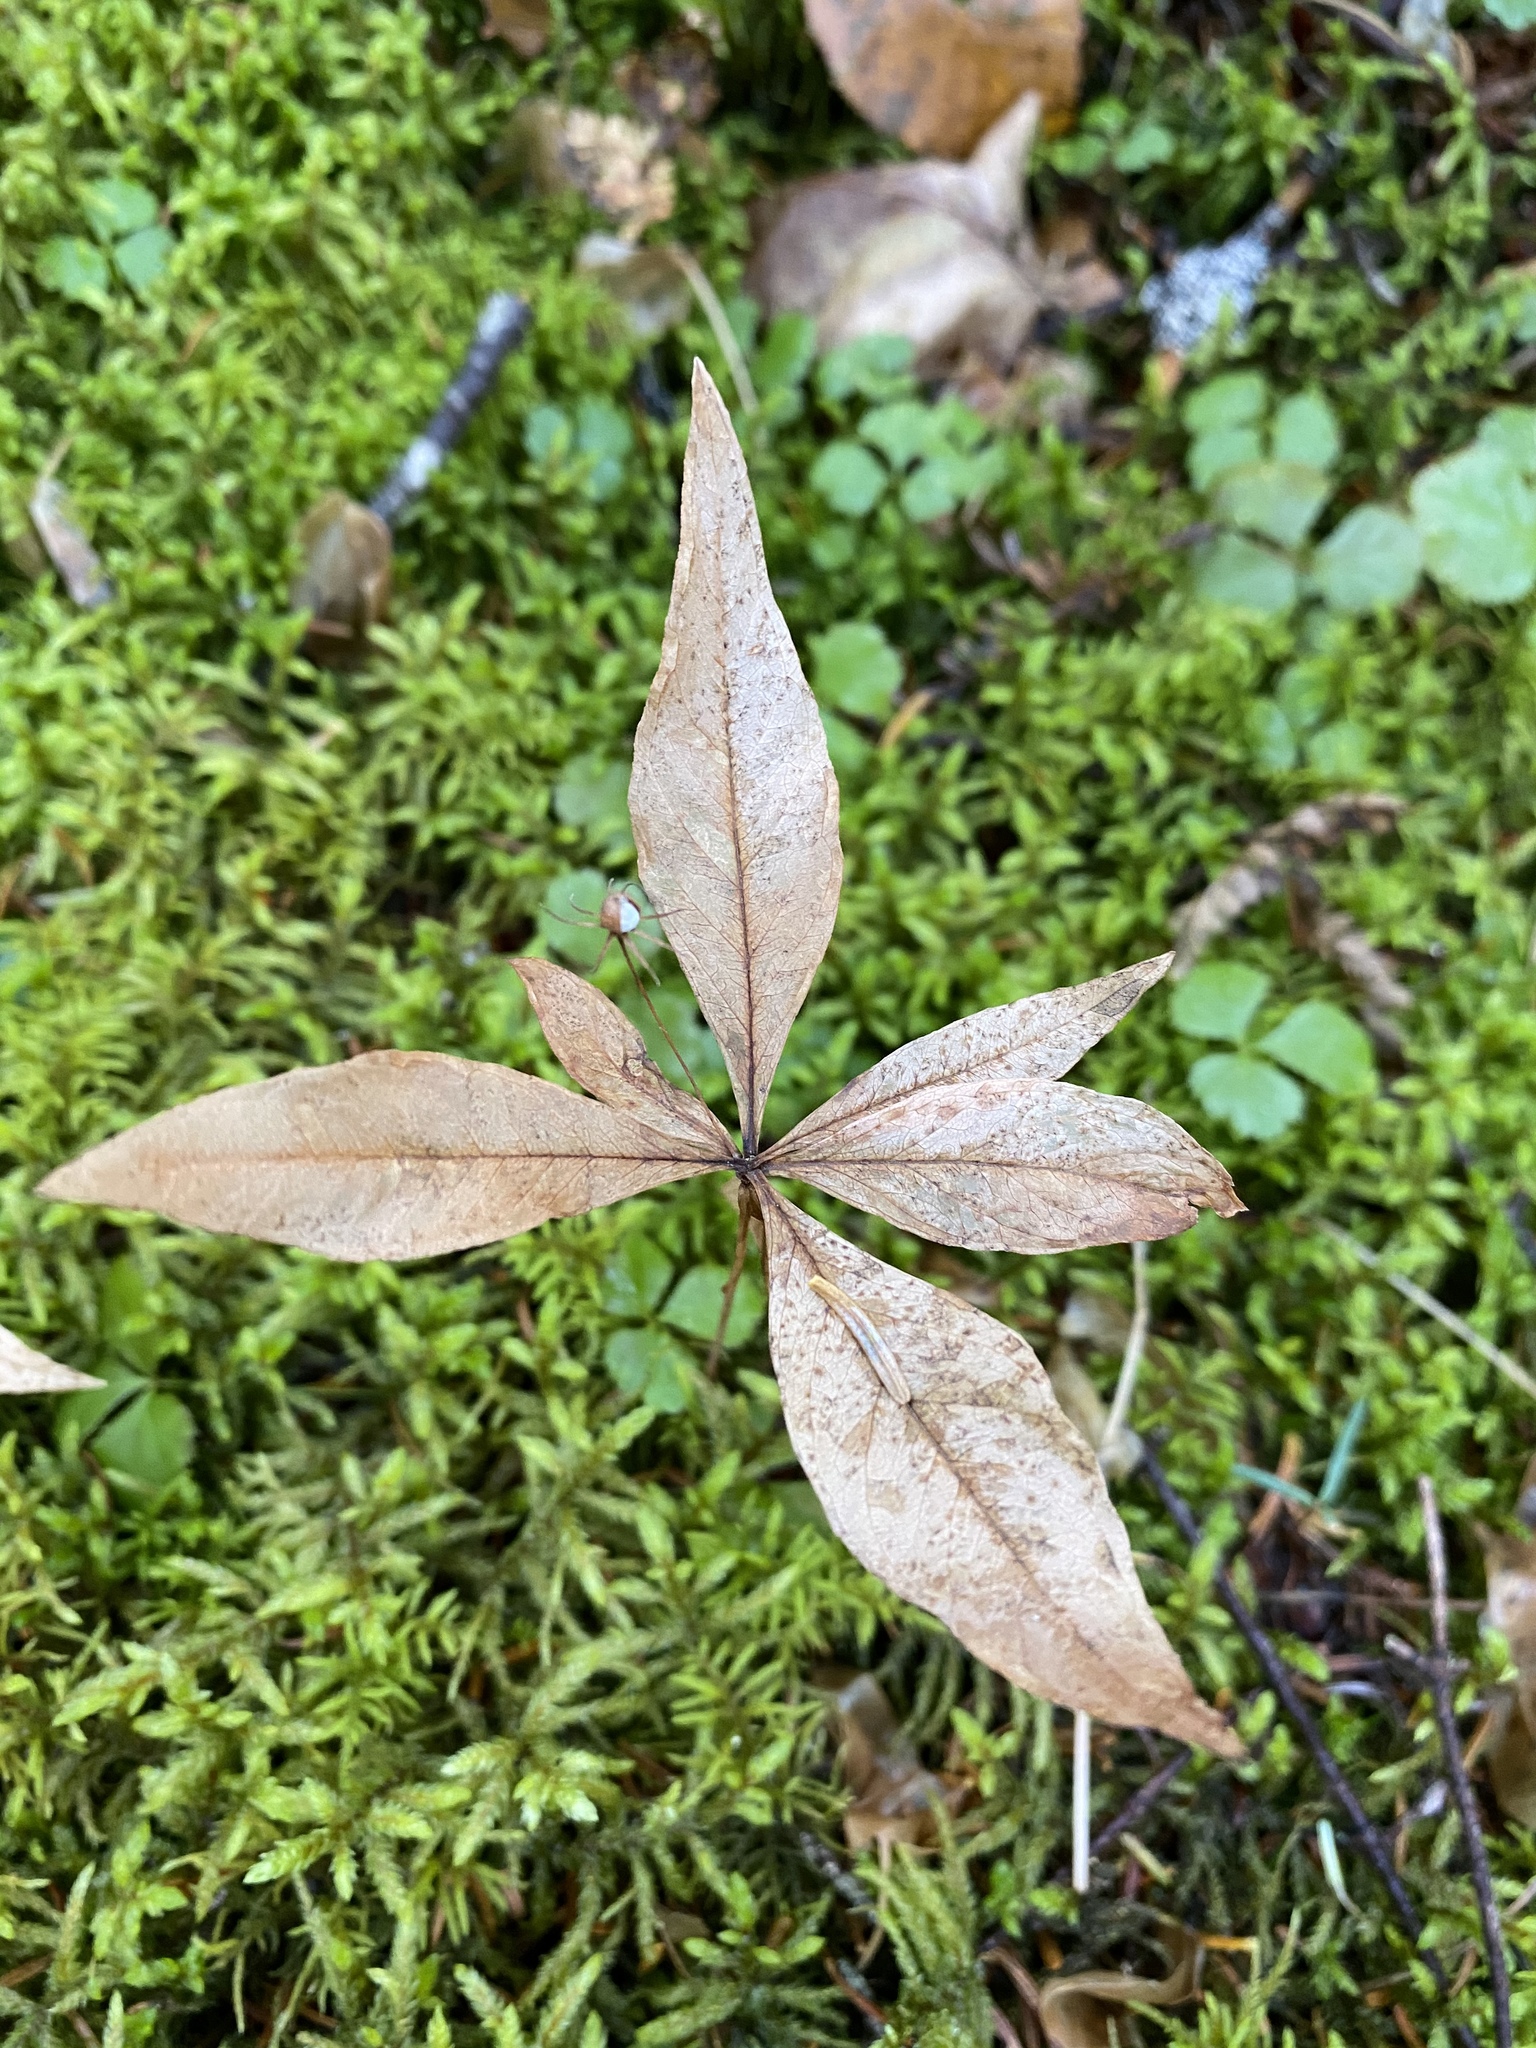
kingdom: Plantae
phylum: Tracheophyta
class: Magnoliopsida
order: Ericales
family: Primulaceae
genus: Lysimachia
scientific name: Lysimachia borealis
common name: American starflower
